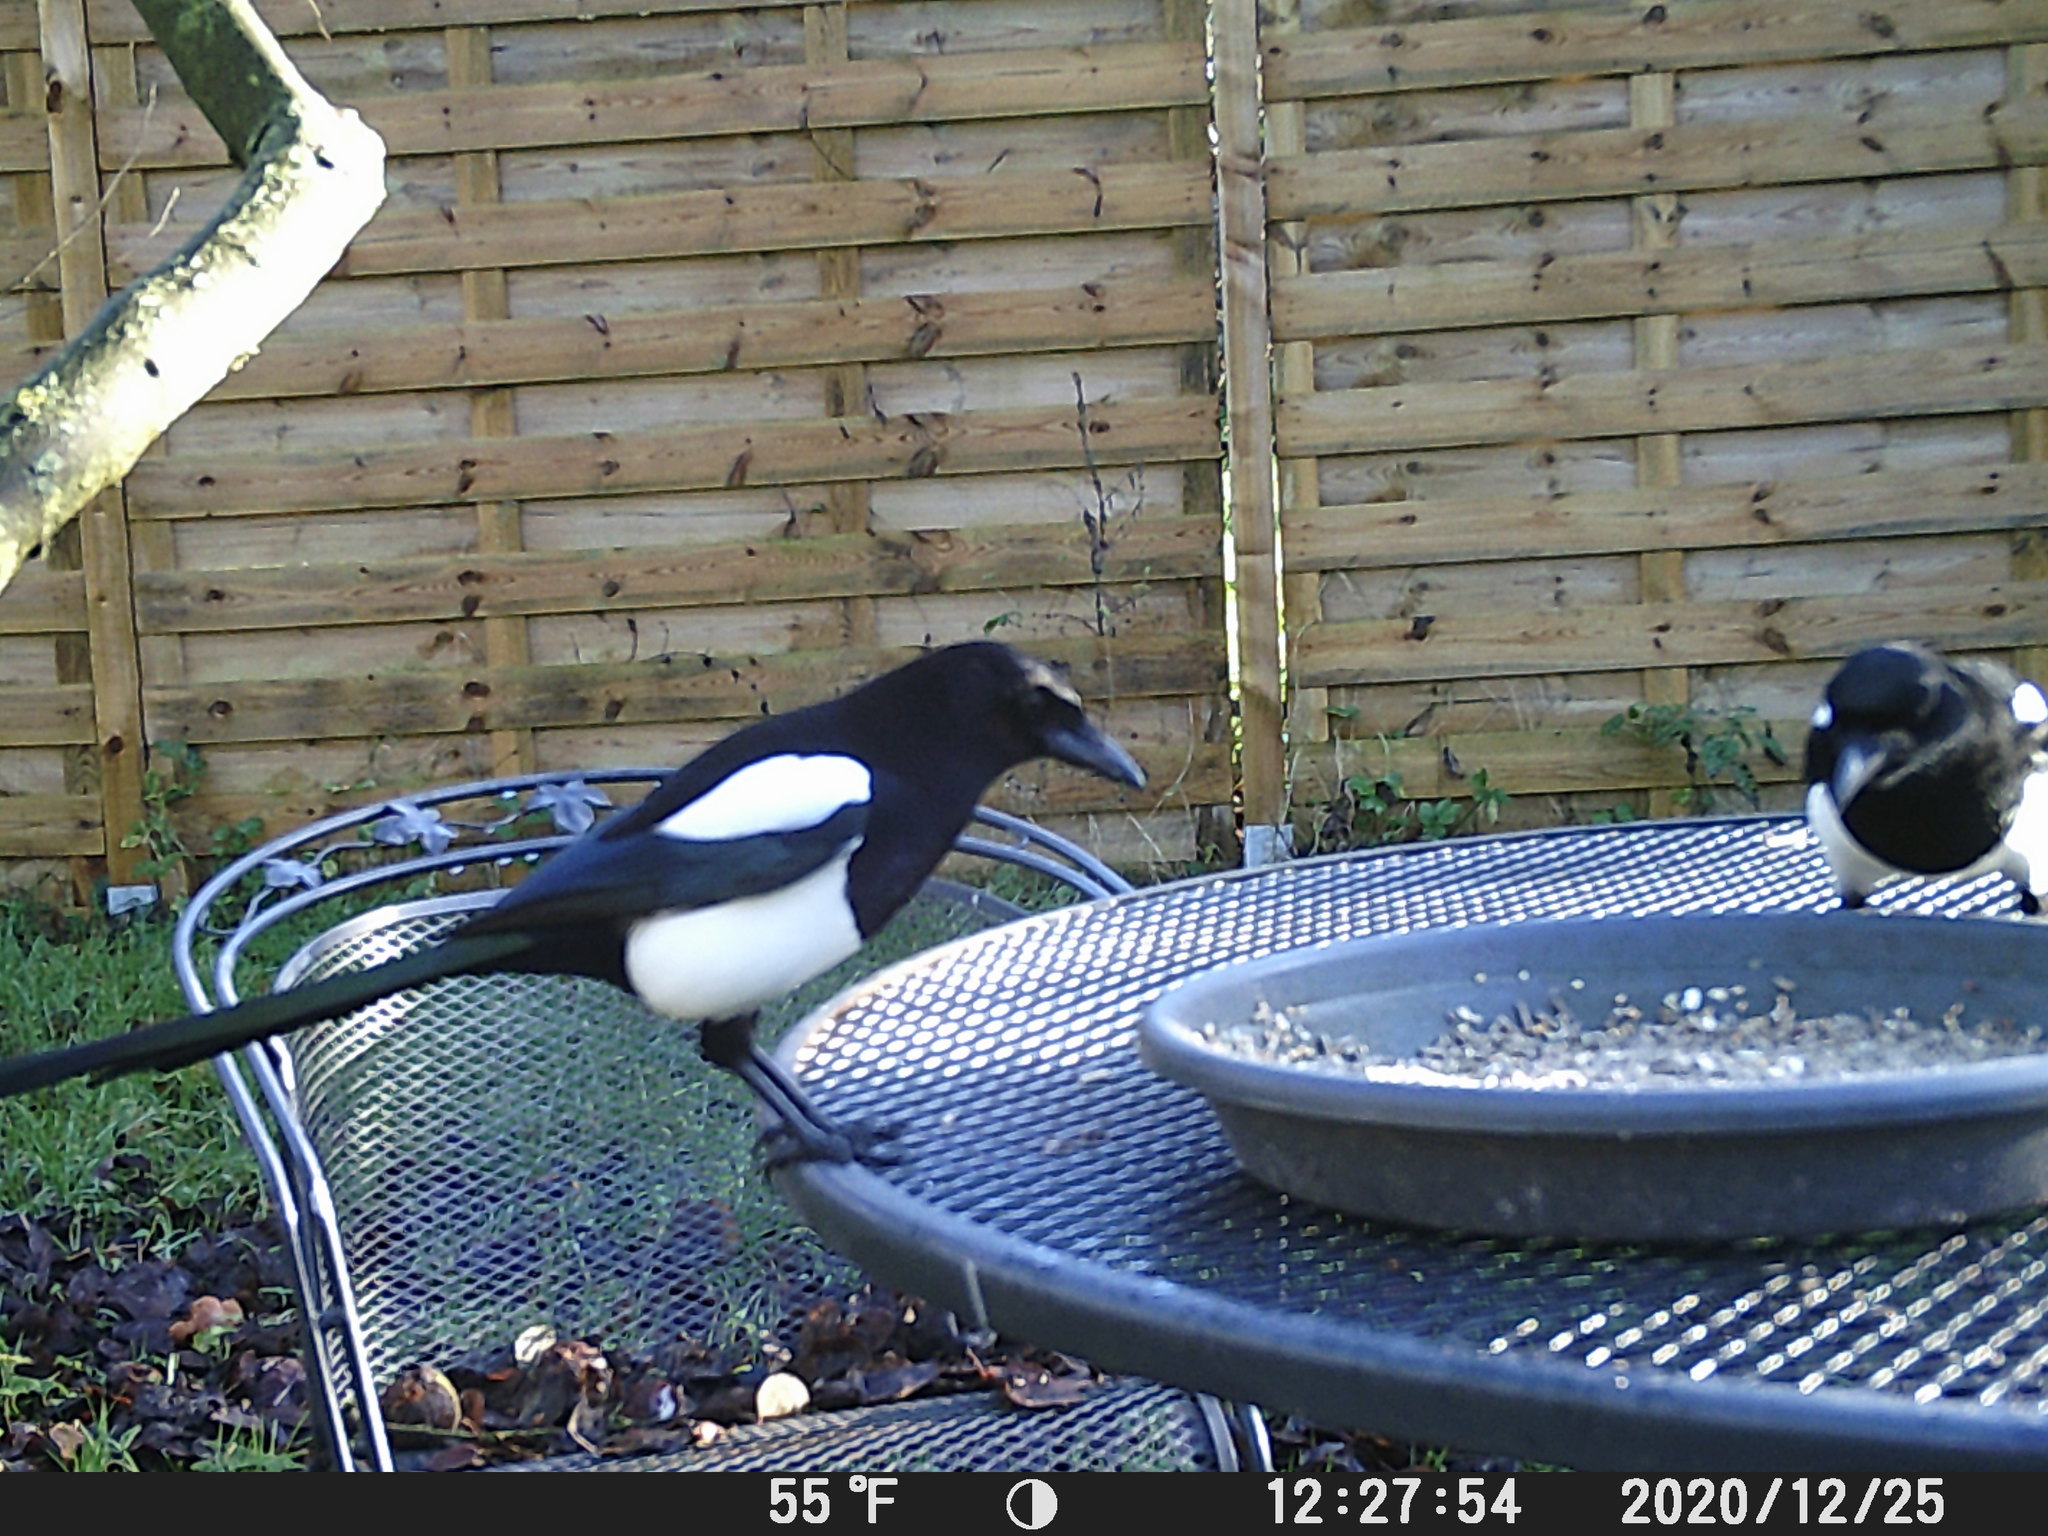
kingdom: Animalia
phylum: Chordata
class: Aves
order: Passeriformes
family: Corvidae
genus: Pica
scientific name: Pica pica
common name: Eurasian magpie
